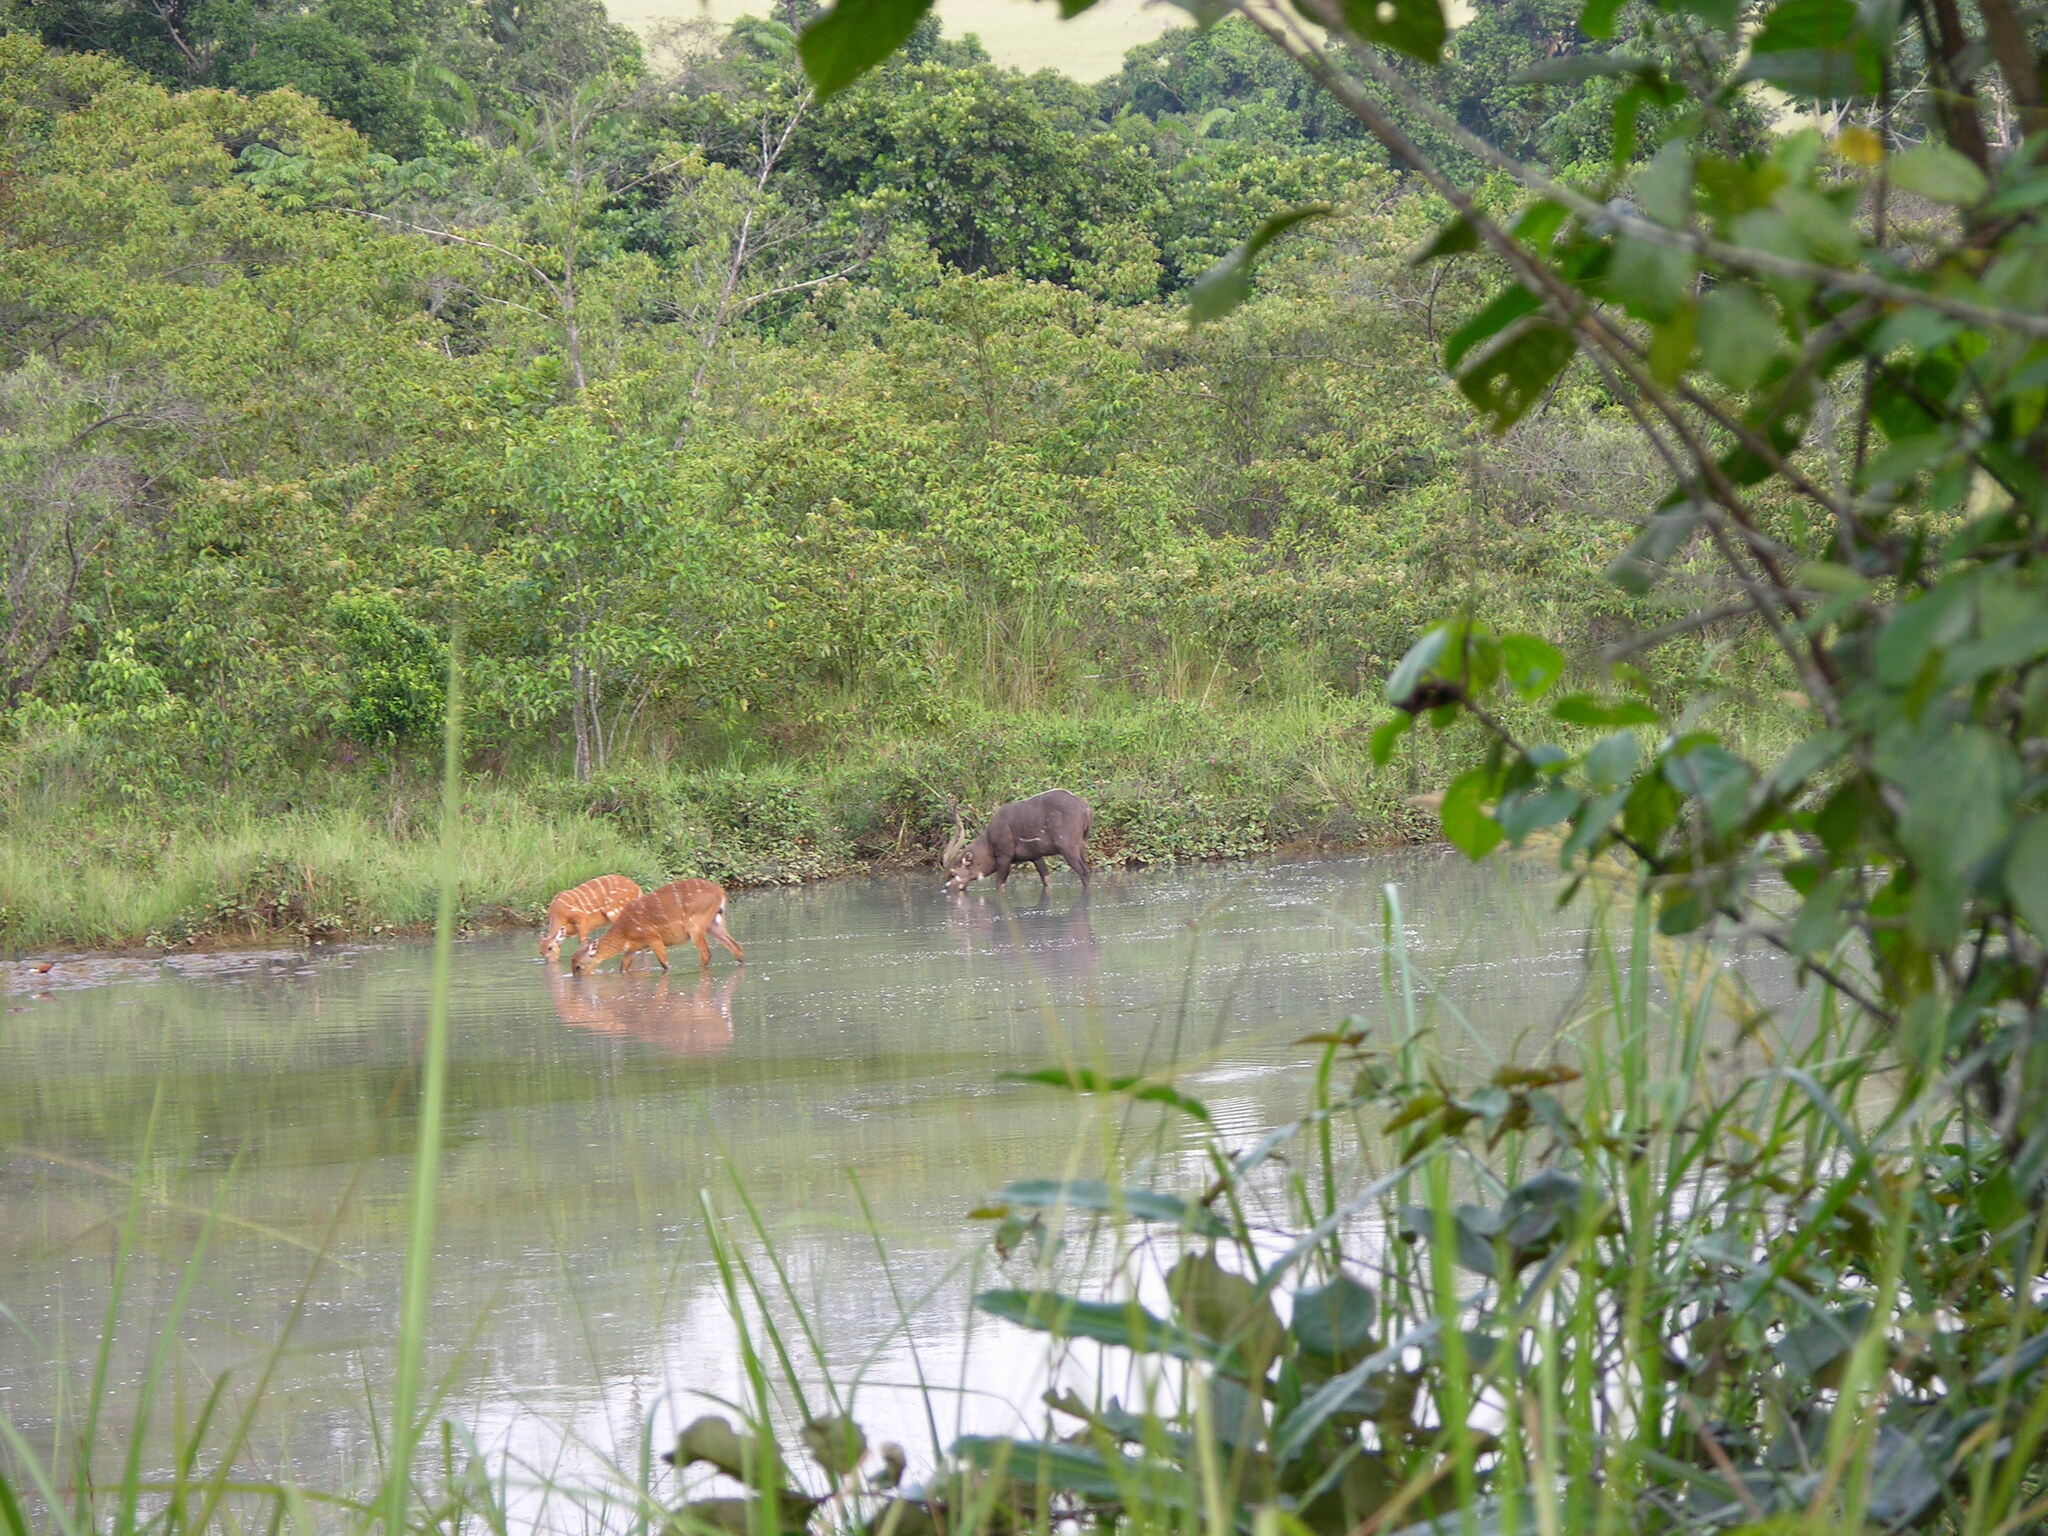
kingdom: Animalia
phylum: Chordata
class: Mammalia
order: Artiodactyla
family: Bovidae
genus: Tragelaphus
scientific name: Tragelaphus spekii
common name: Sitatunga
